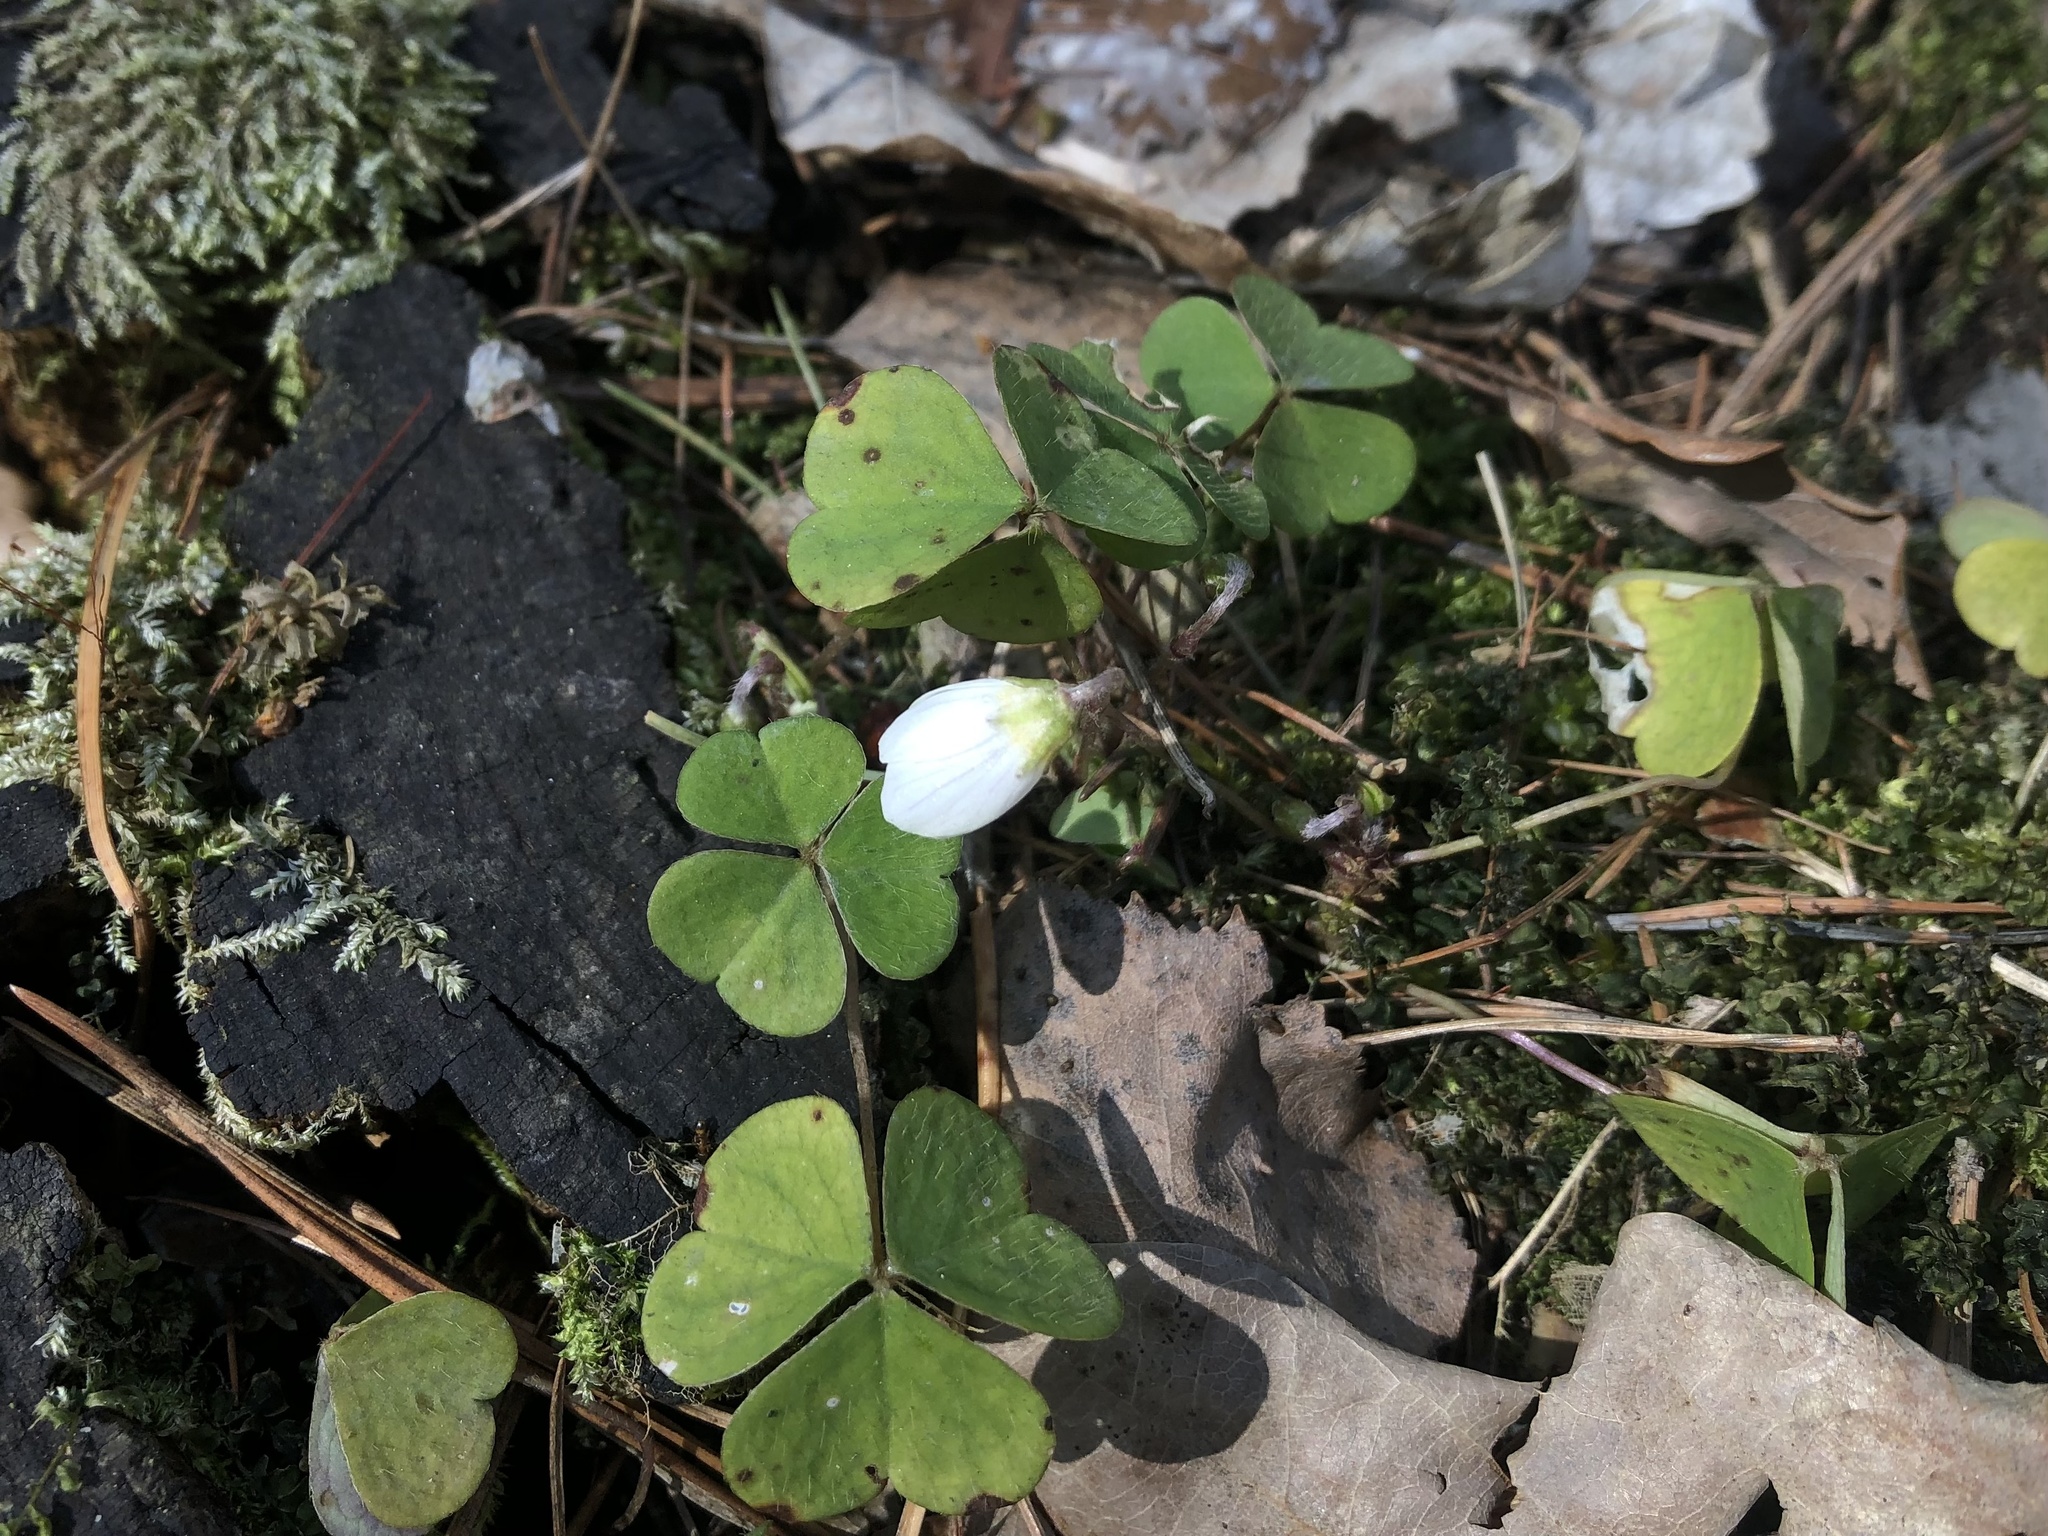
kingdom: Plantae
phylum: Tracheophyta
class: Magnoliopsida
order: Oxalidales
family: Oxalidaceae
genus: Oxalis
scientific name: Oxalis acetosella
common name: Wood-sorrel
